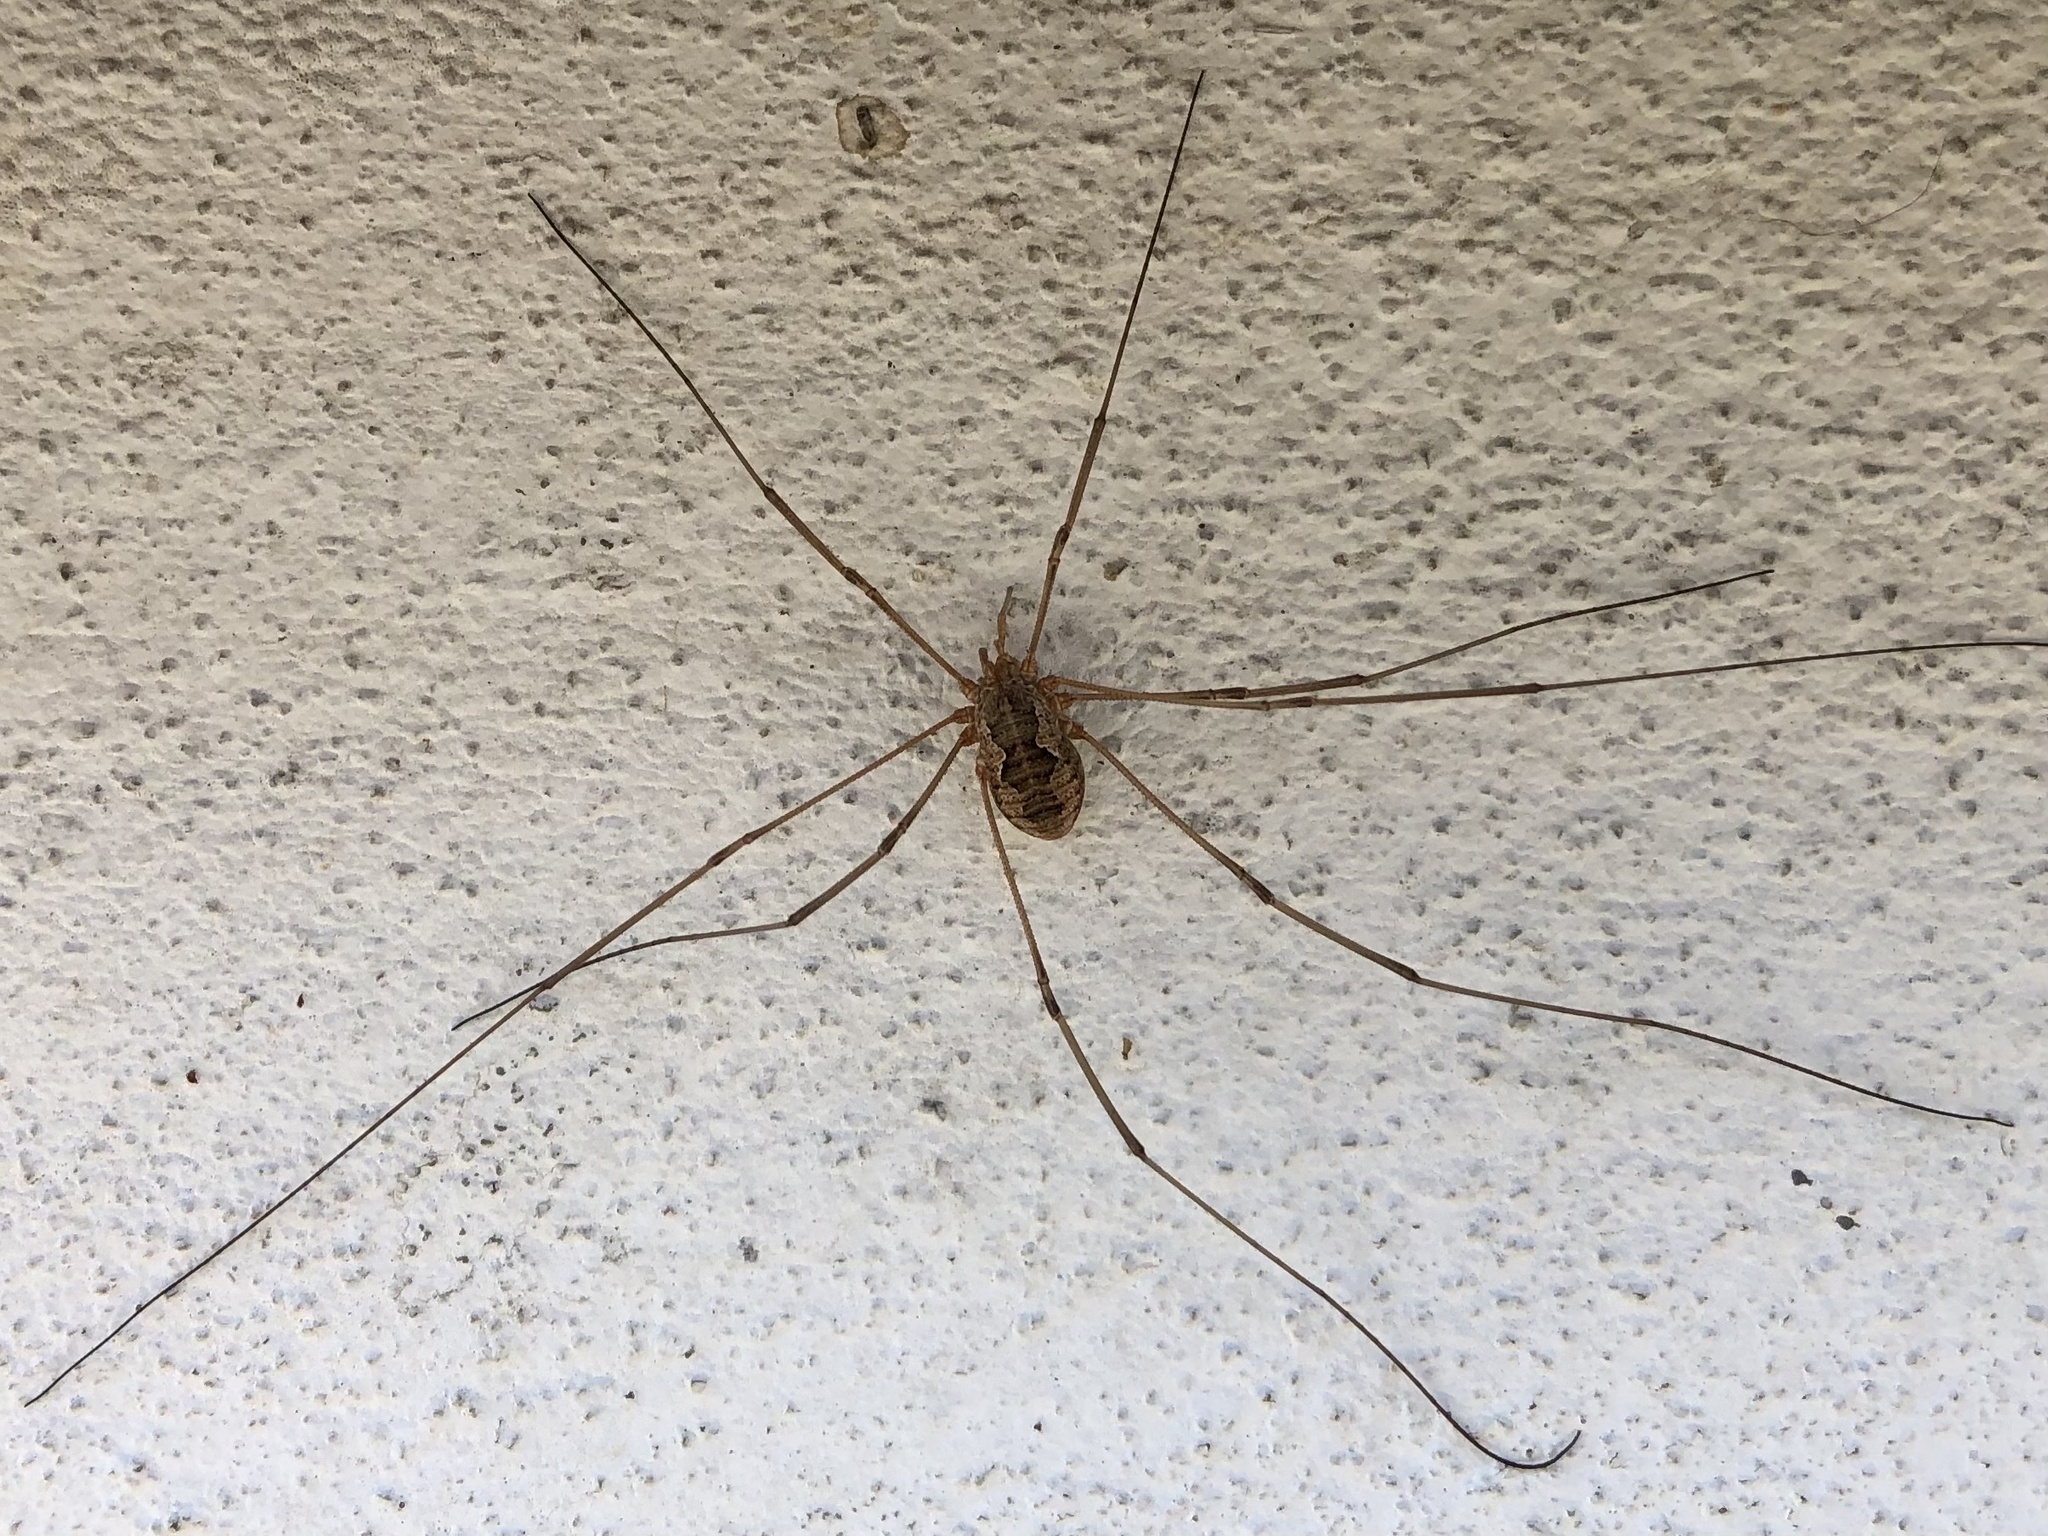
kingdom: Animalia
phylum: Arthropoda
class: Arachnida
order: Opiliones
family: Phalangiidae
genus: Phalangium
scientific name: Phalangium opilio
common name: Daddy longleg
